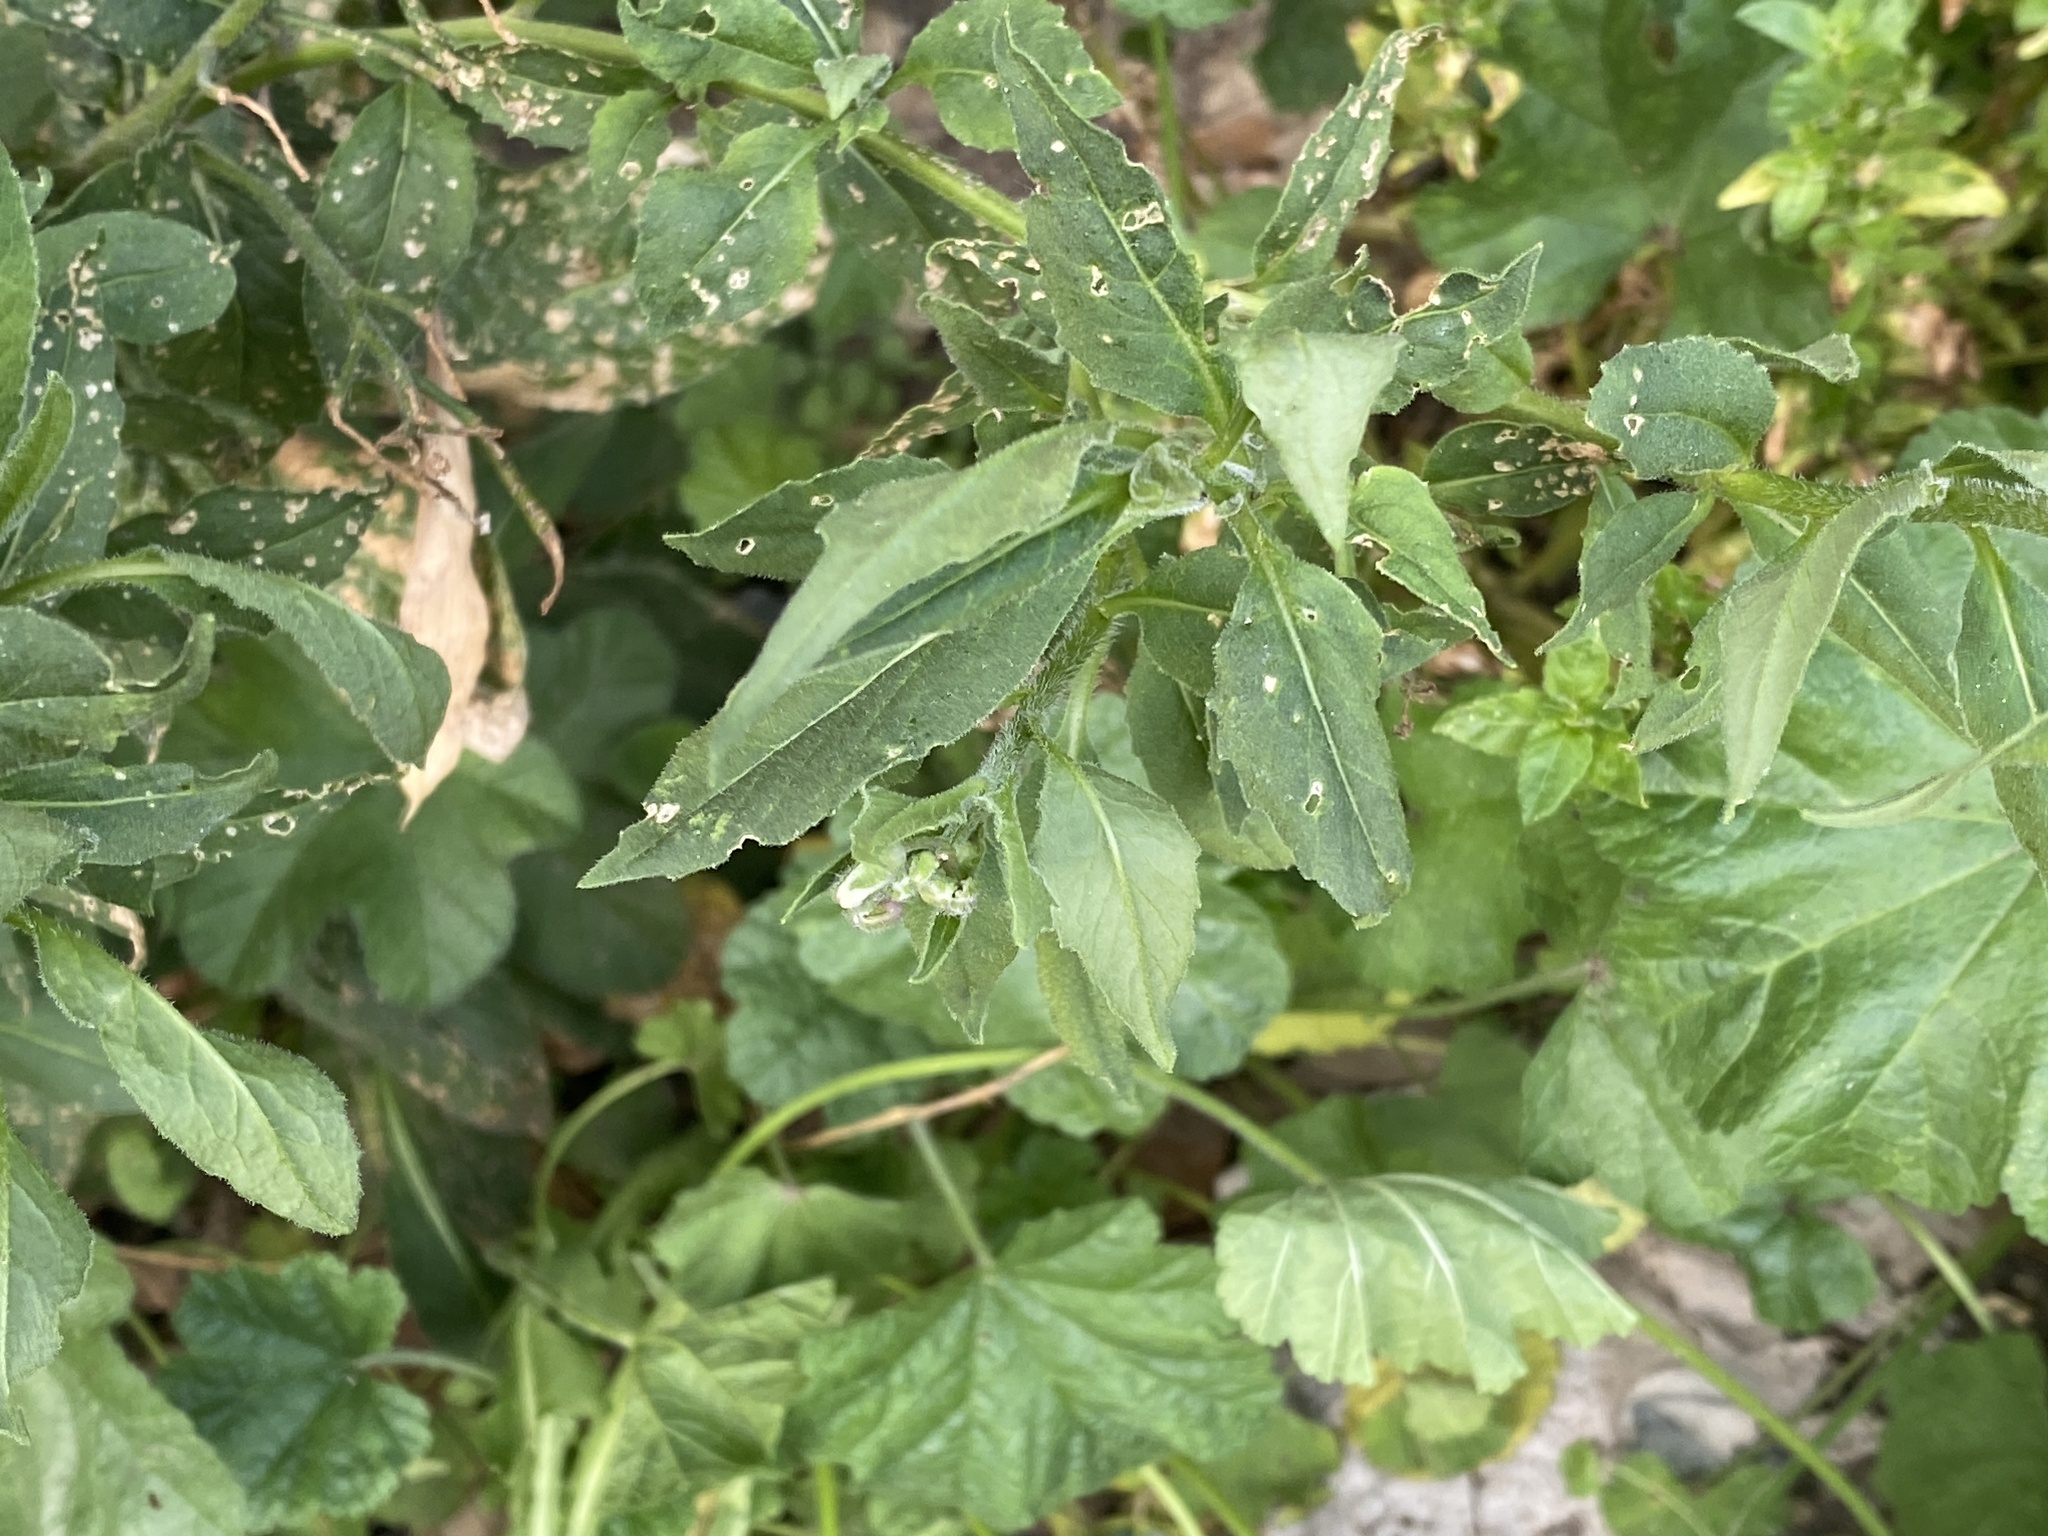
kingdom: Plantae
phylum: Tracheophyta
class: Magnoliopsida
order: Brassicales
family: Brassicaceae
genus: Hesperis
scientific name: Hesperis matronalis
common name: Dame's-violet
